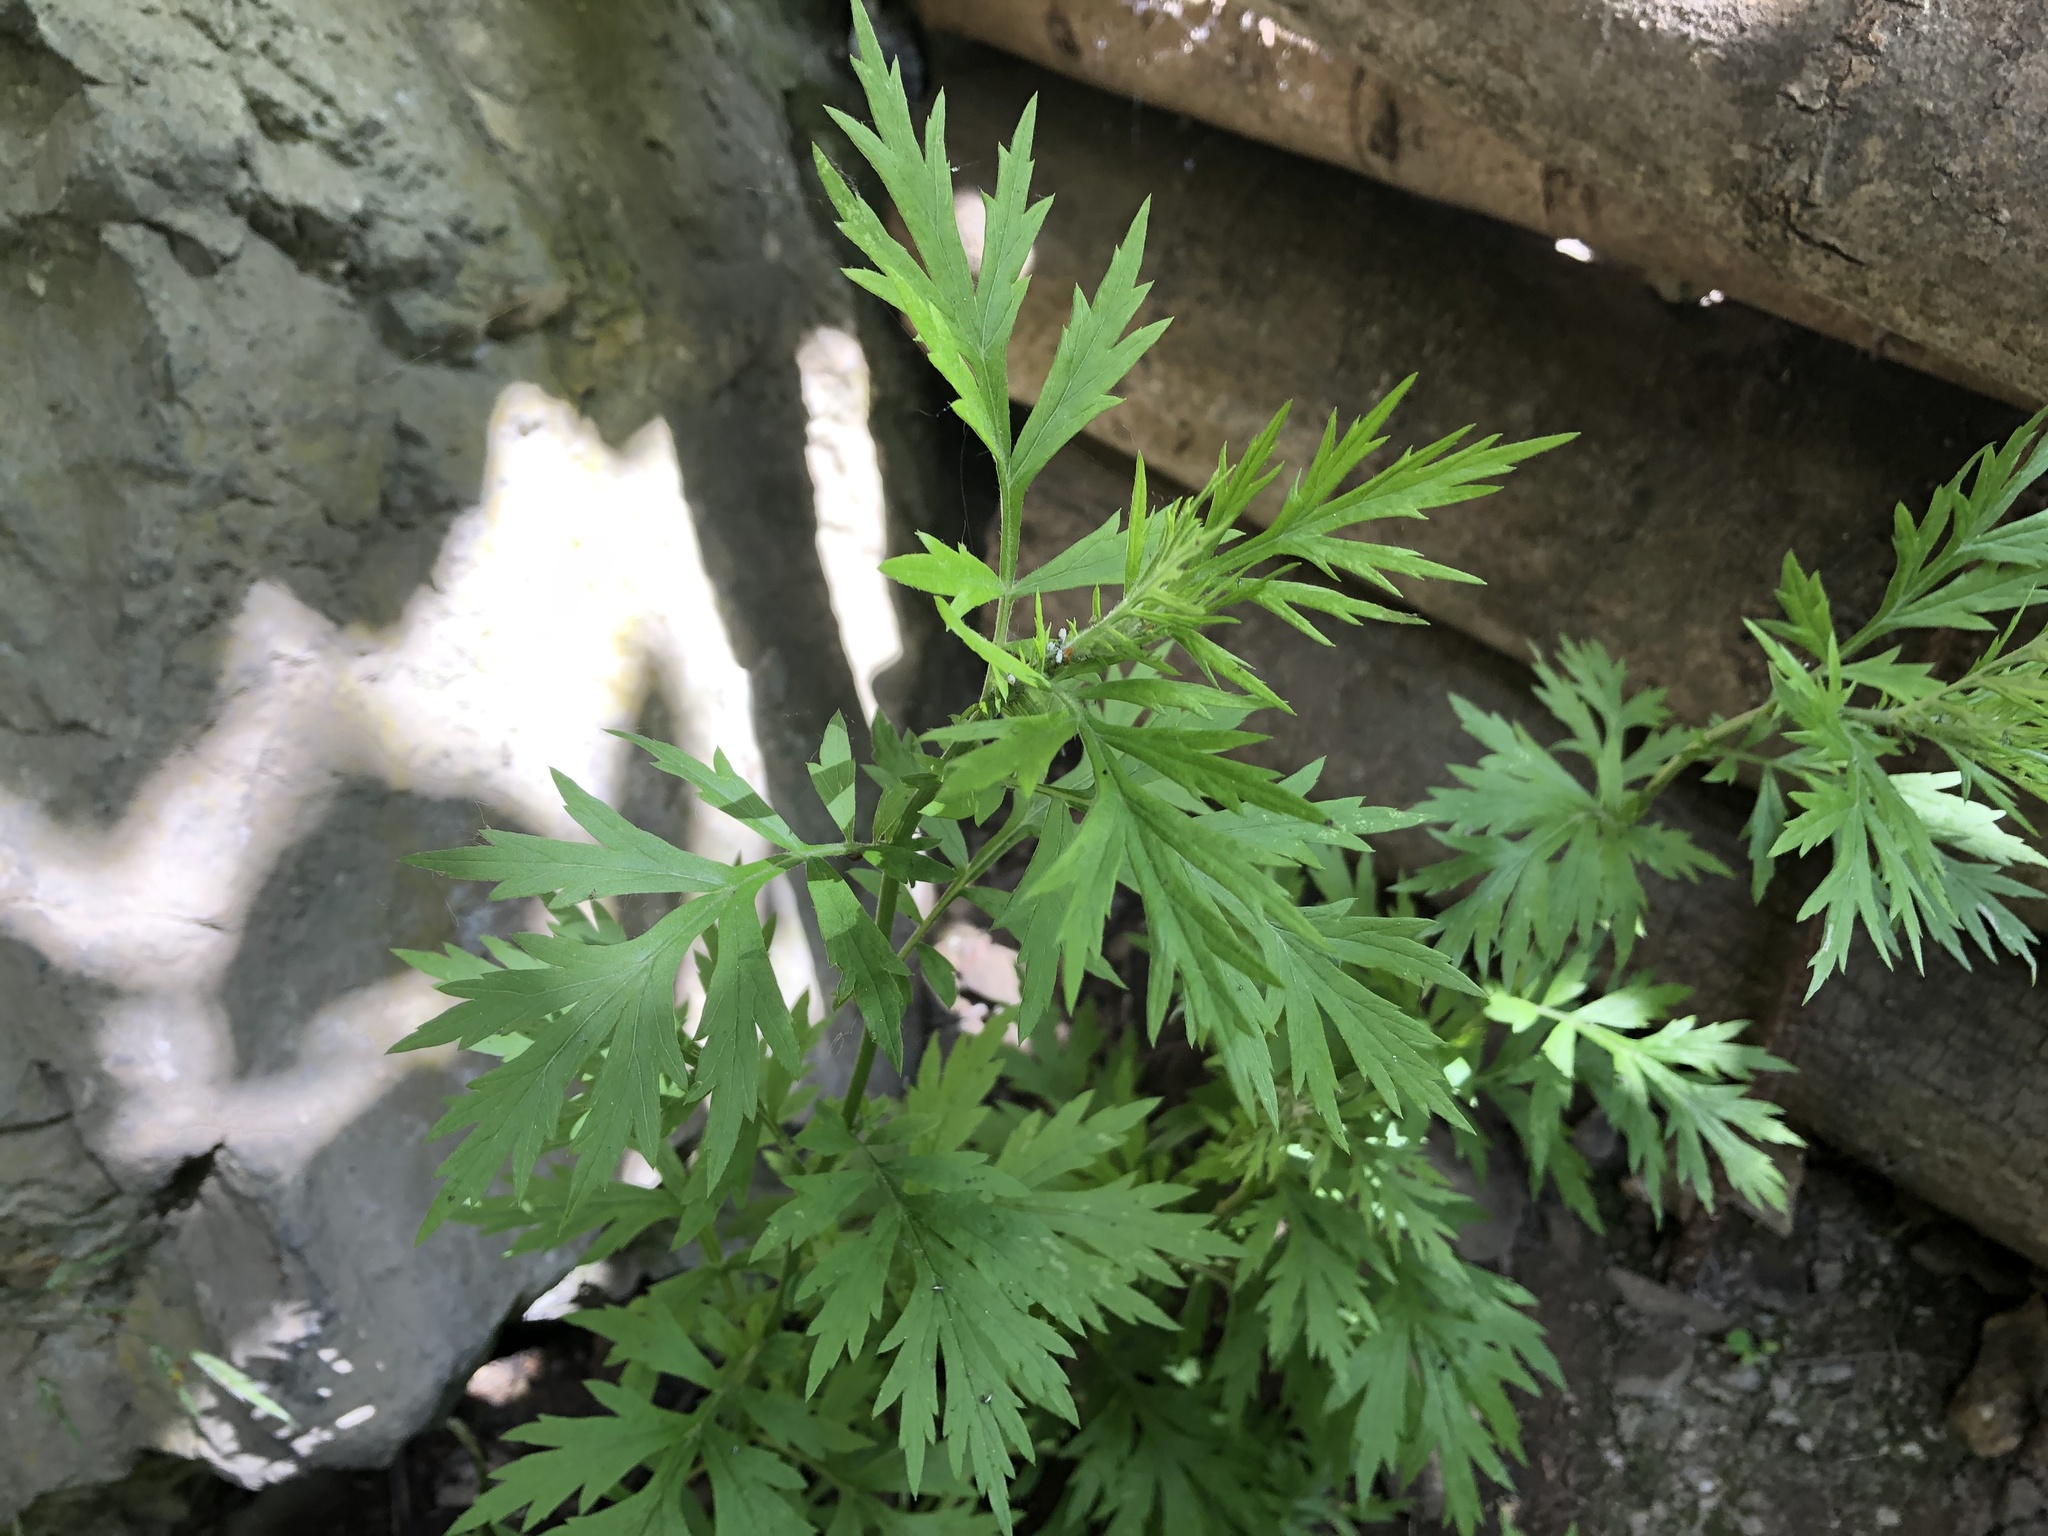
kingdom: Plantae
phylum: Tracheophyta
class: Magnoliopsida
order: Asterales
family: Asteraceae
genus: Artemisia
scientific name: Artemisia vulgaris
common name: Mugwort
